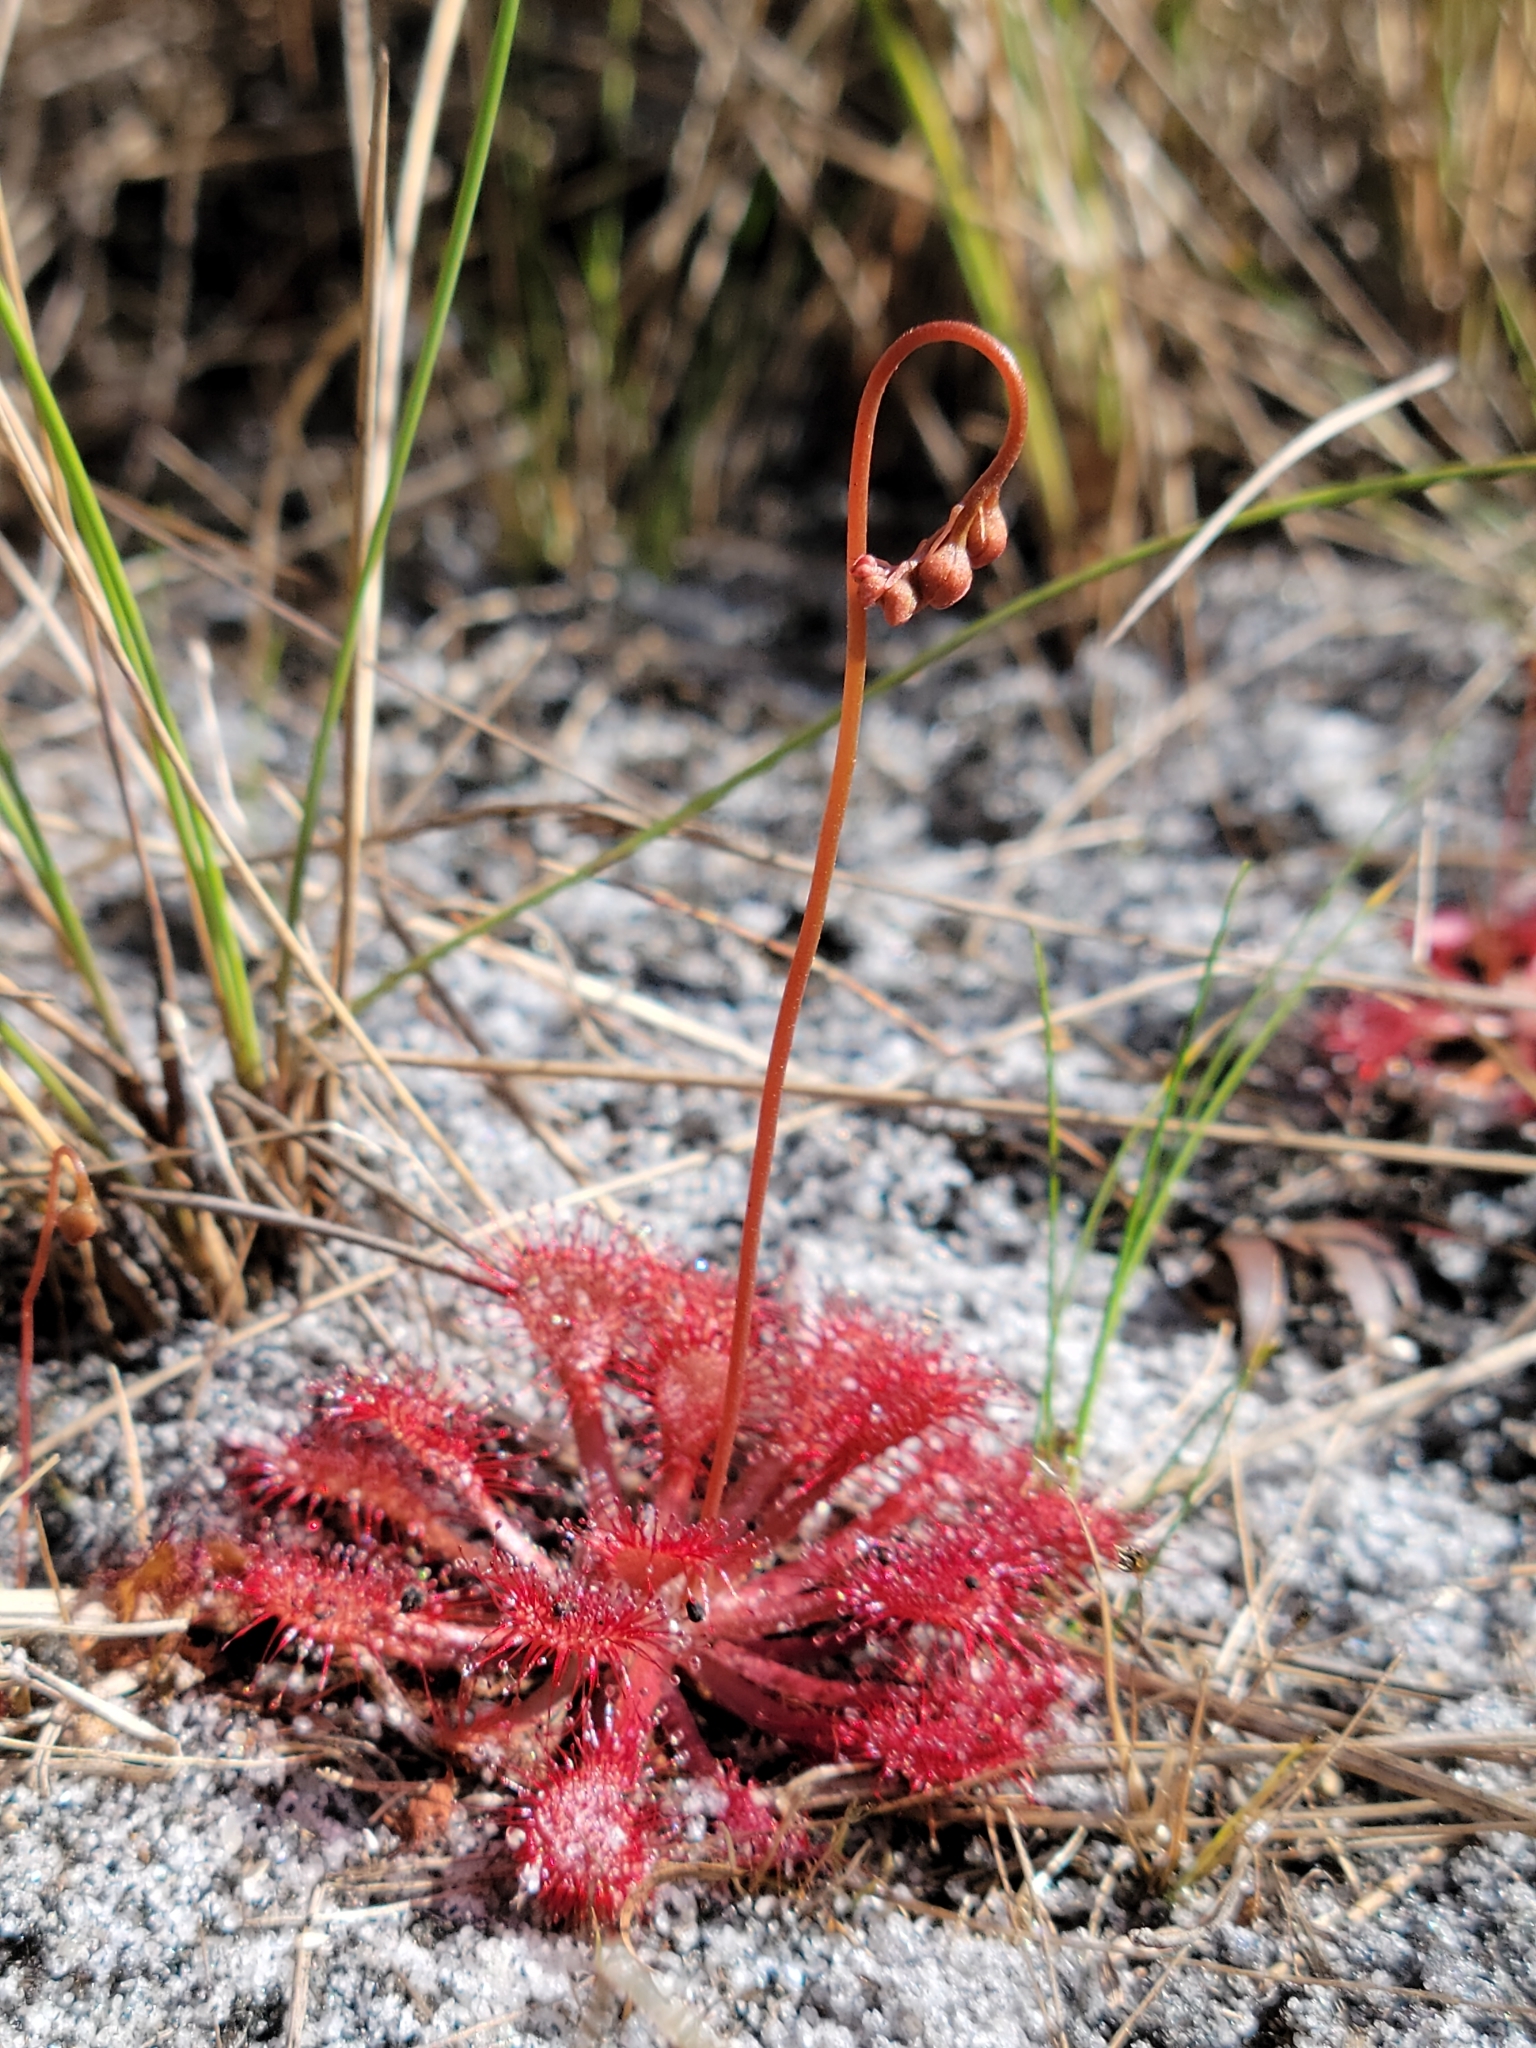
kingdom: Plantae
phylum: Tracheophyta
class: Magnoliopsida
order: Caryophyllales
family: Droseraceae
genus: Drosera
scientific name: Drosera capillaris
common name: Pink sundew
